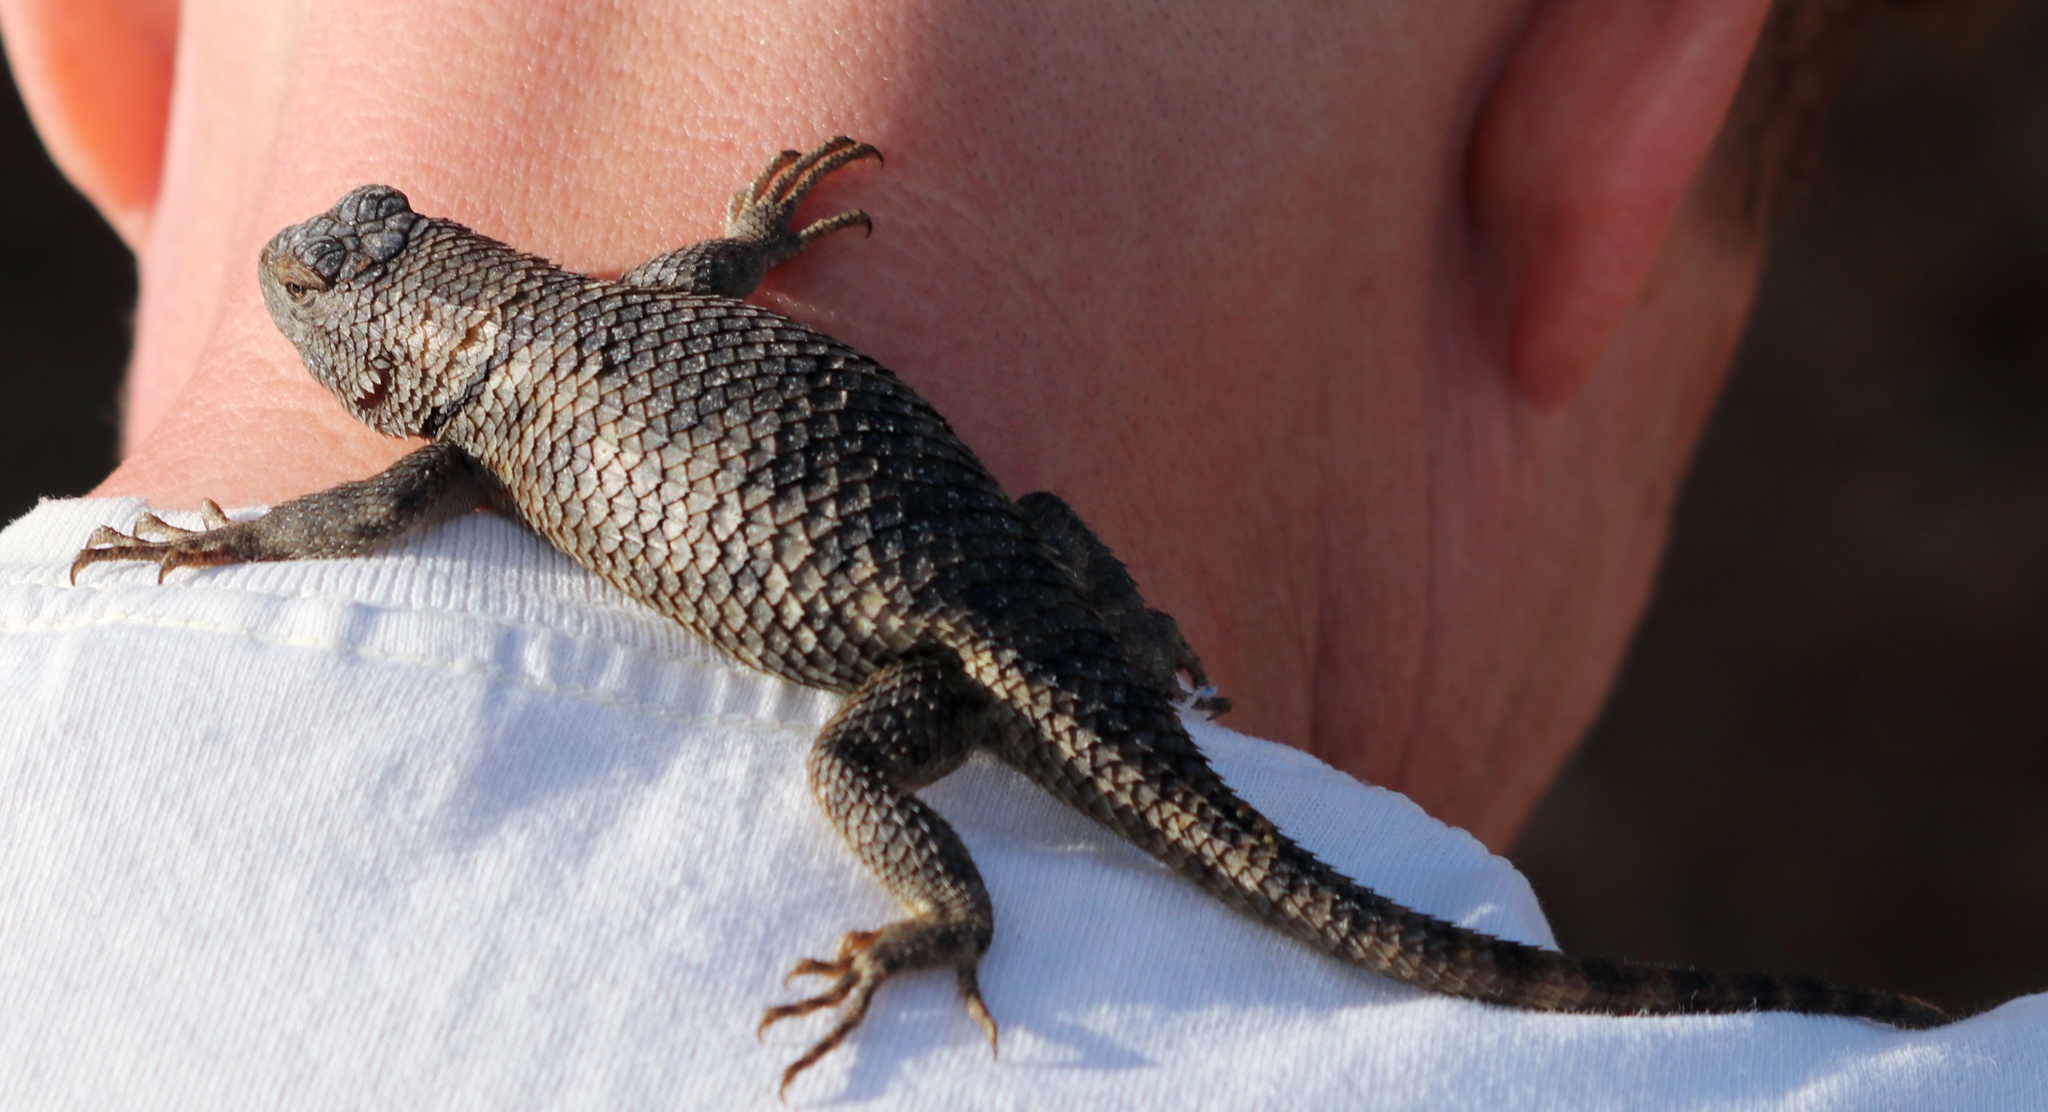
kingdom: Animalia
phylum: Chordata
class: Squamata
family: Phrynosomatidae
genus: Sceloporus
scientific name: Sceloporus uniformis
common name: Yellow-backed spiny lizard
